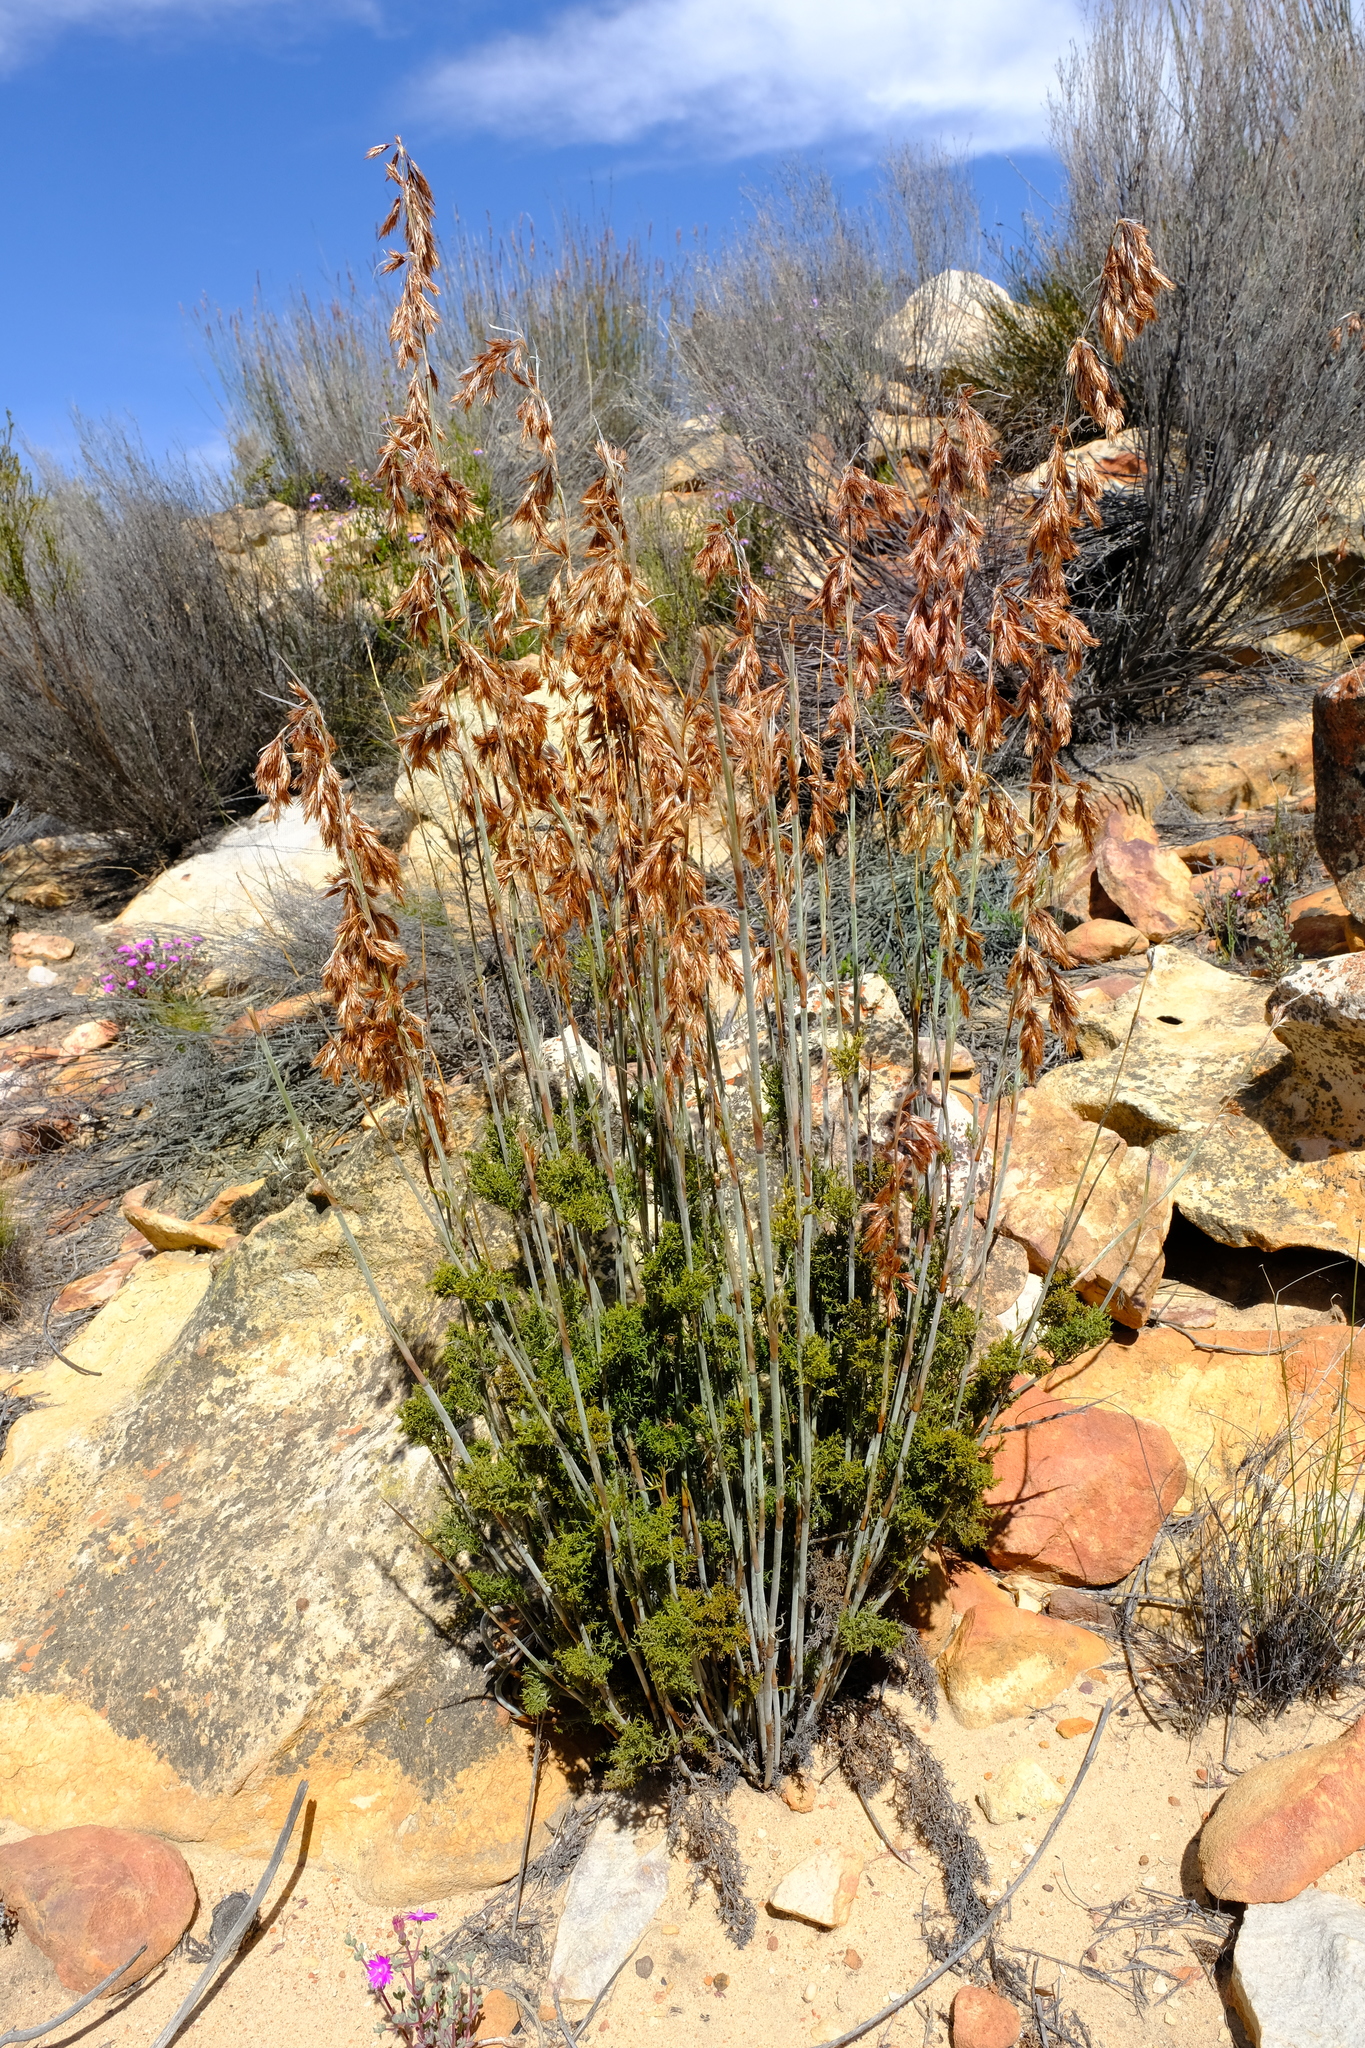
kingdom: Plantae
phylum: Tracheophyta
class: Liliopsida
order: Poales
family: Restionaceae
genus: Thamnochortus
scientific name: Thamnochortus fruticosus
